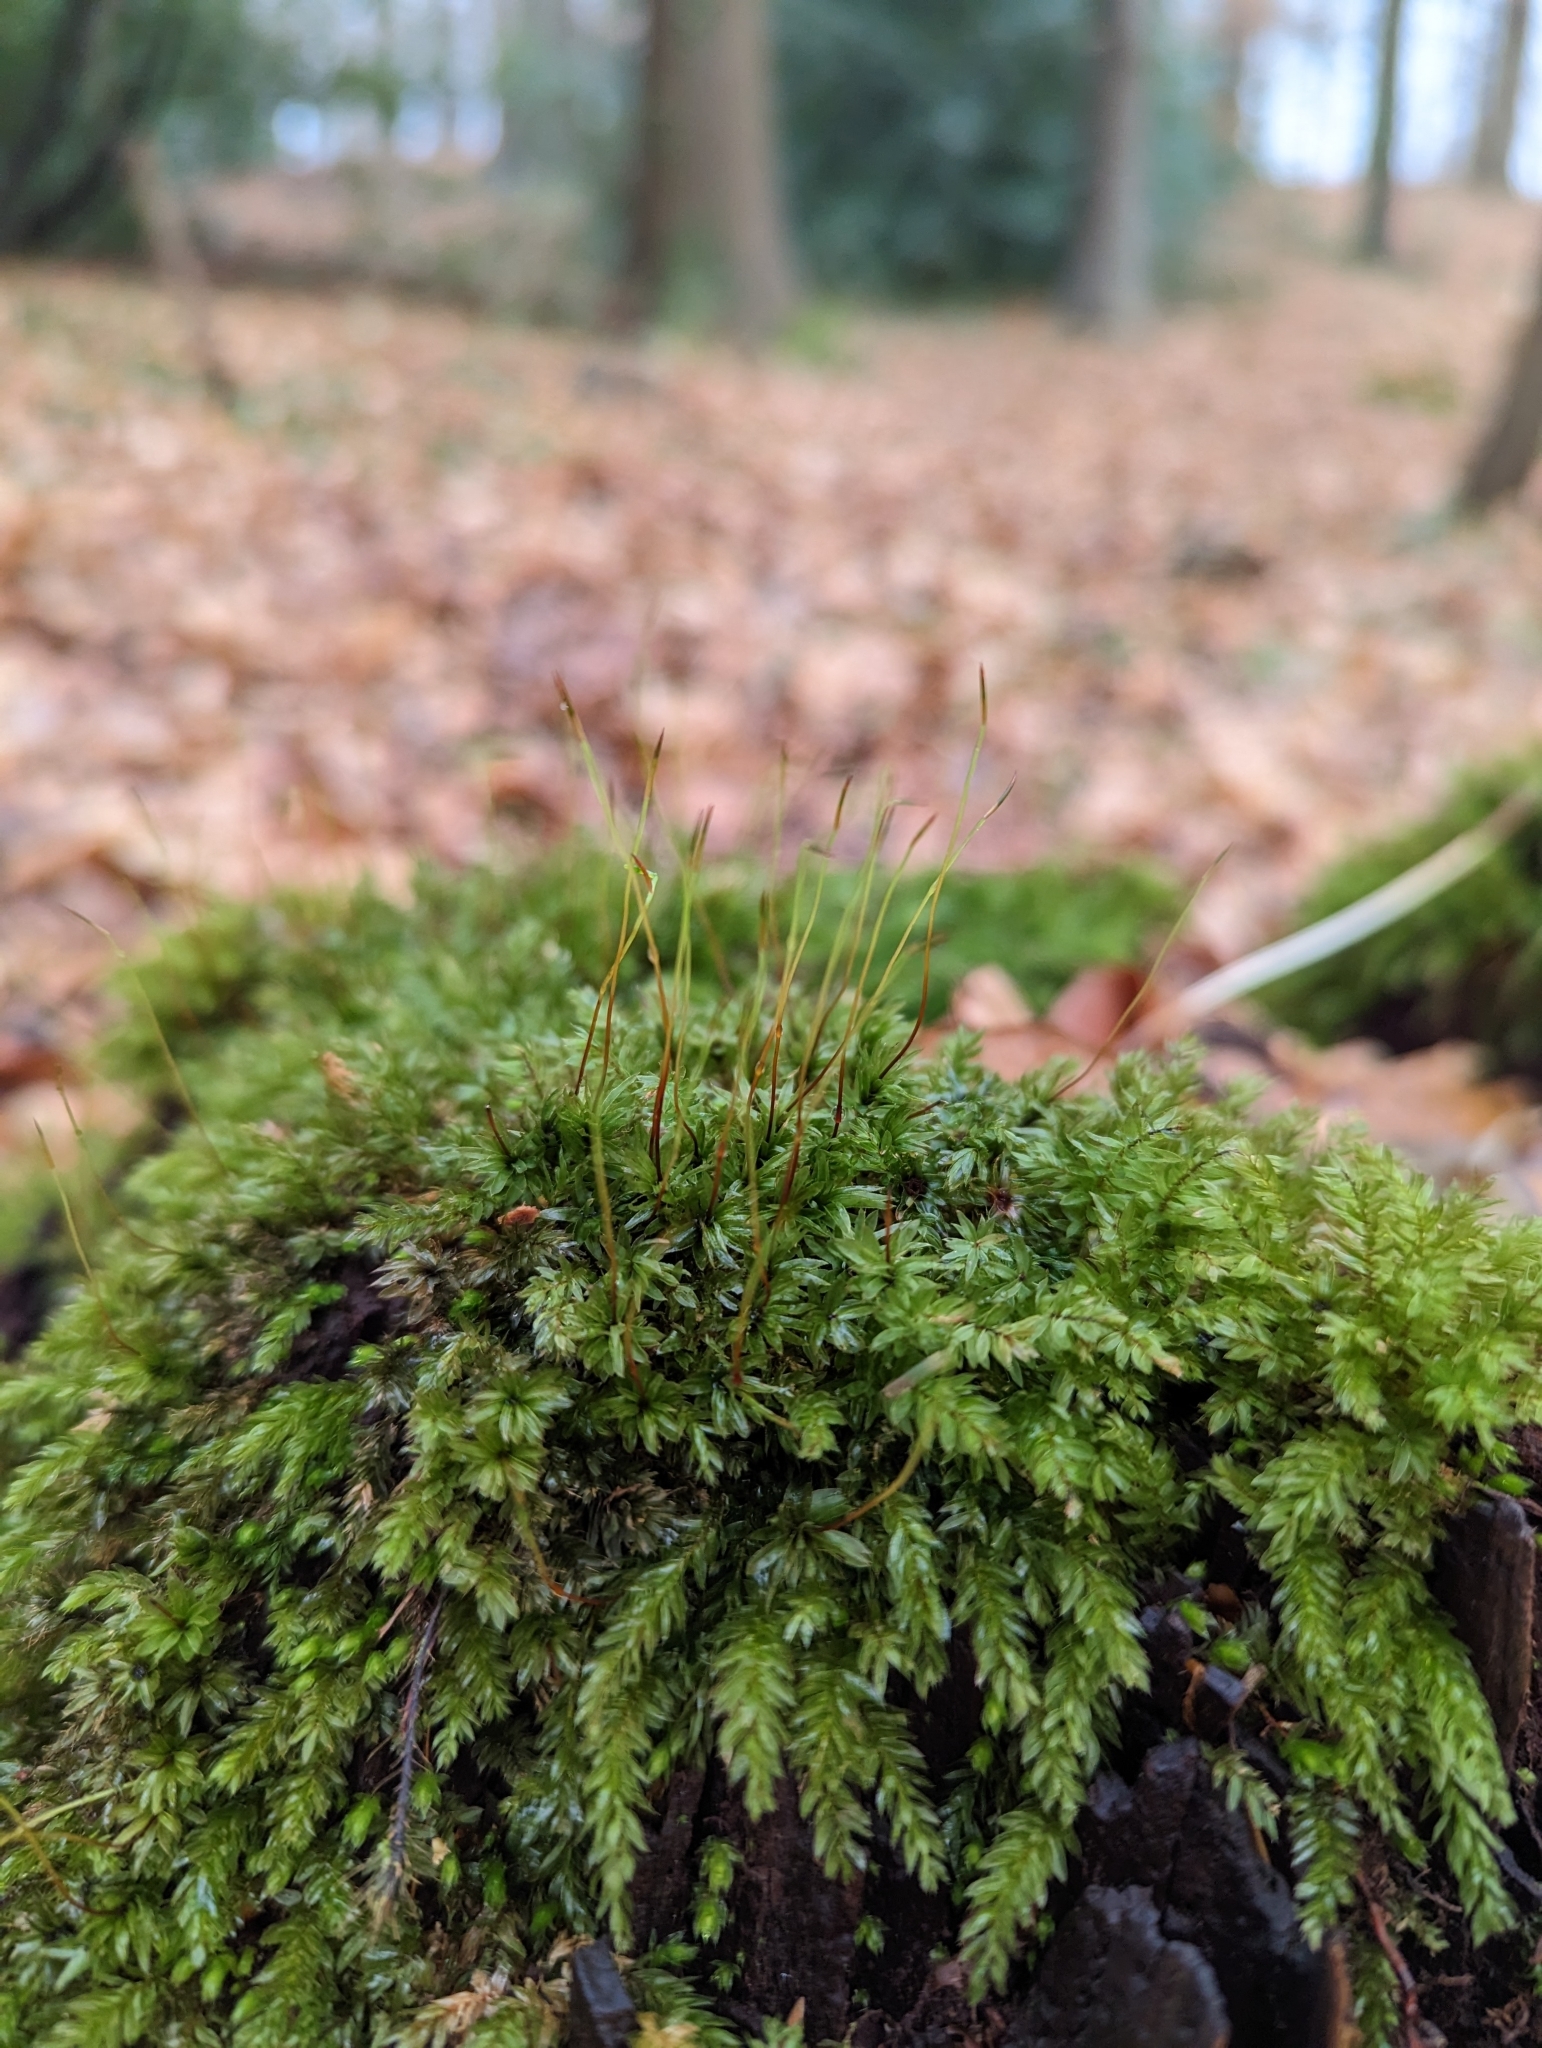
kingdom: Plantae
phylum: Bryophyta
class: Bryopsida
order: Bryales
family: Mniaceae
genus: Mnium
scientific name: Mnium hornum
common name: Swan's-neck leafy moss
